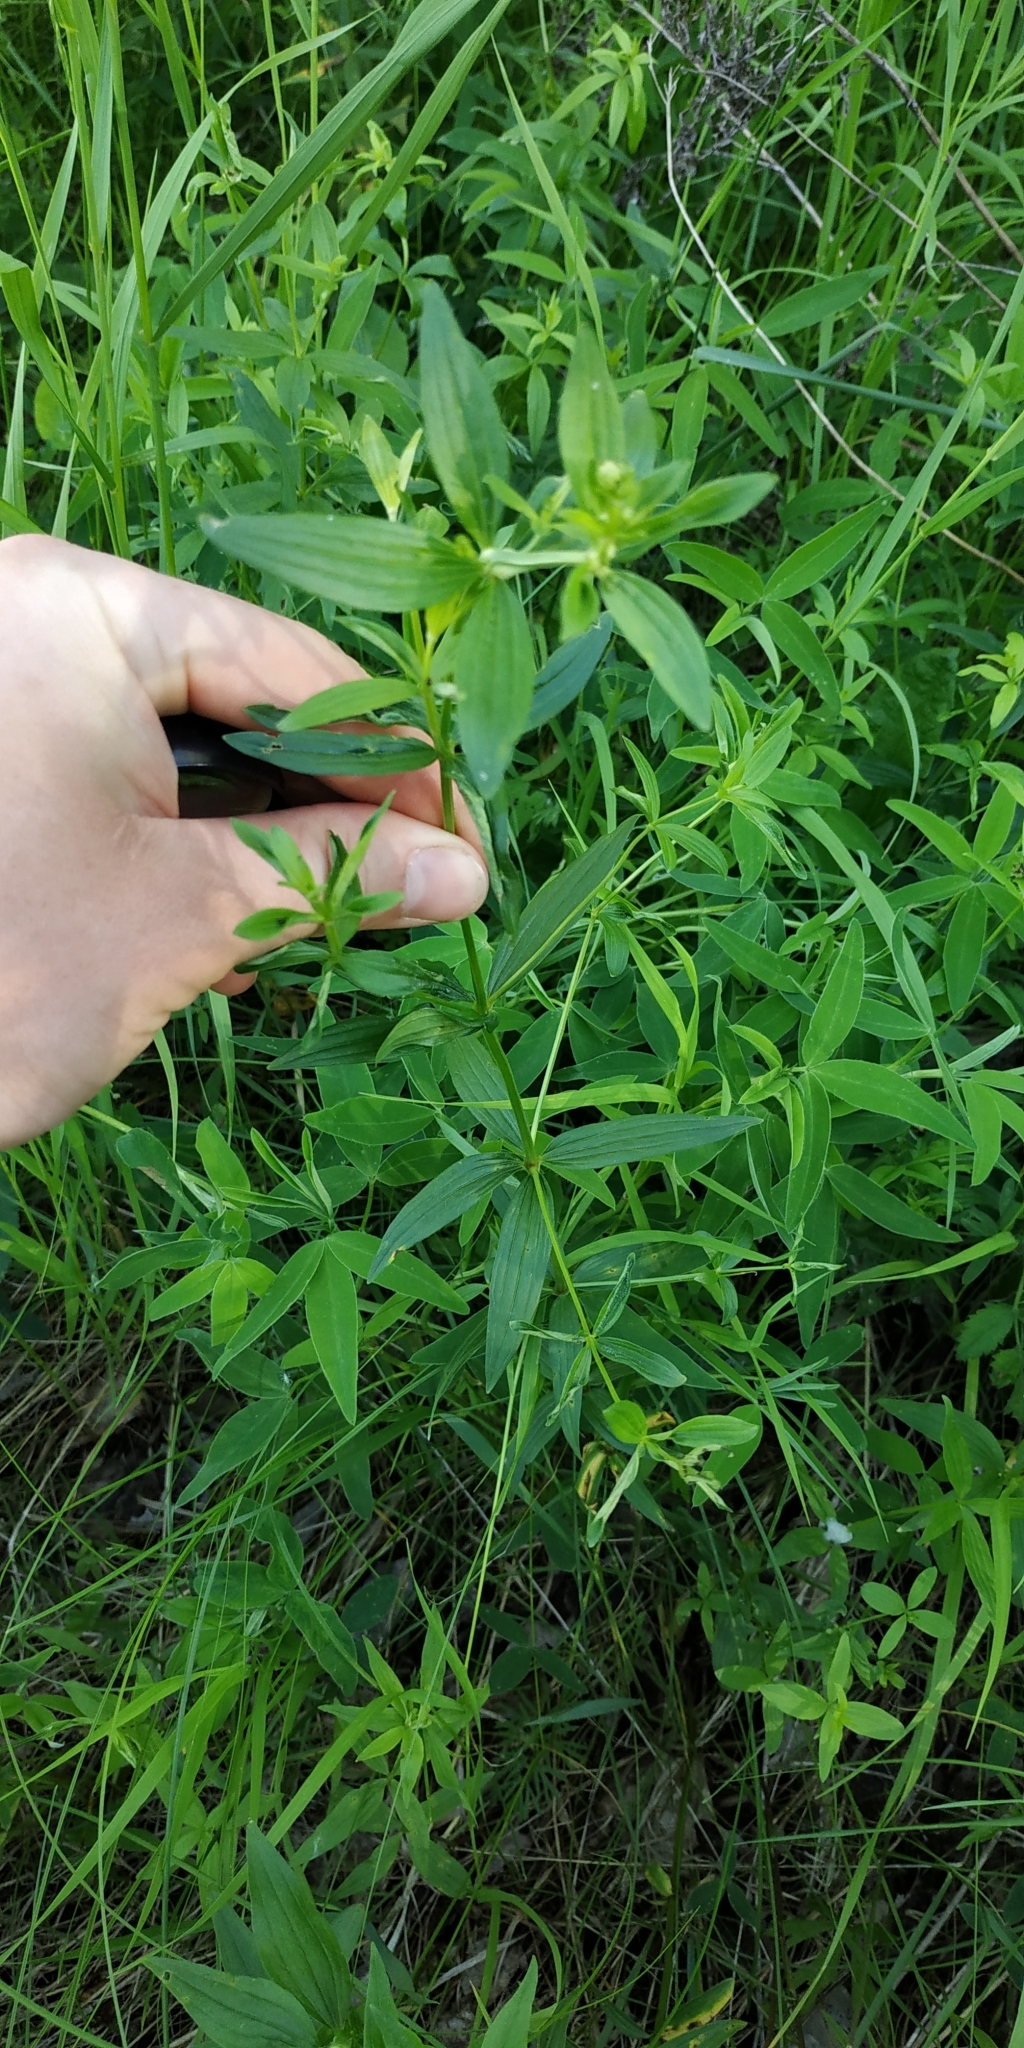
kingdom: Plantae
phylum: Tracheophyta
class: Magnoliopsida
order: Gentianales
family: Rubiaceae
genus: Galium
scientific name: Galium boreale
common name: Northern bedstraw
